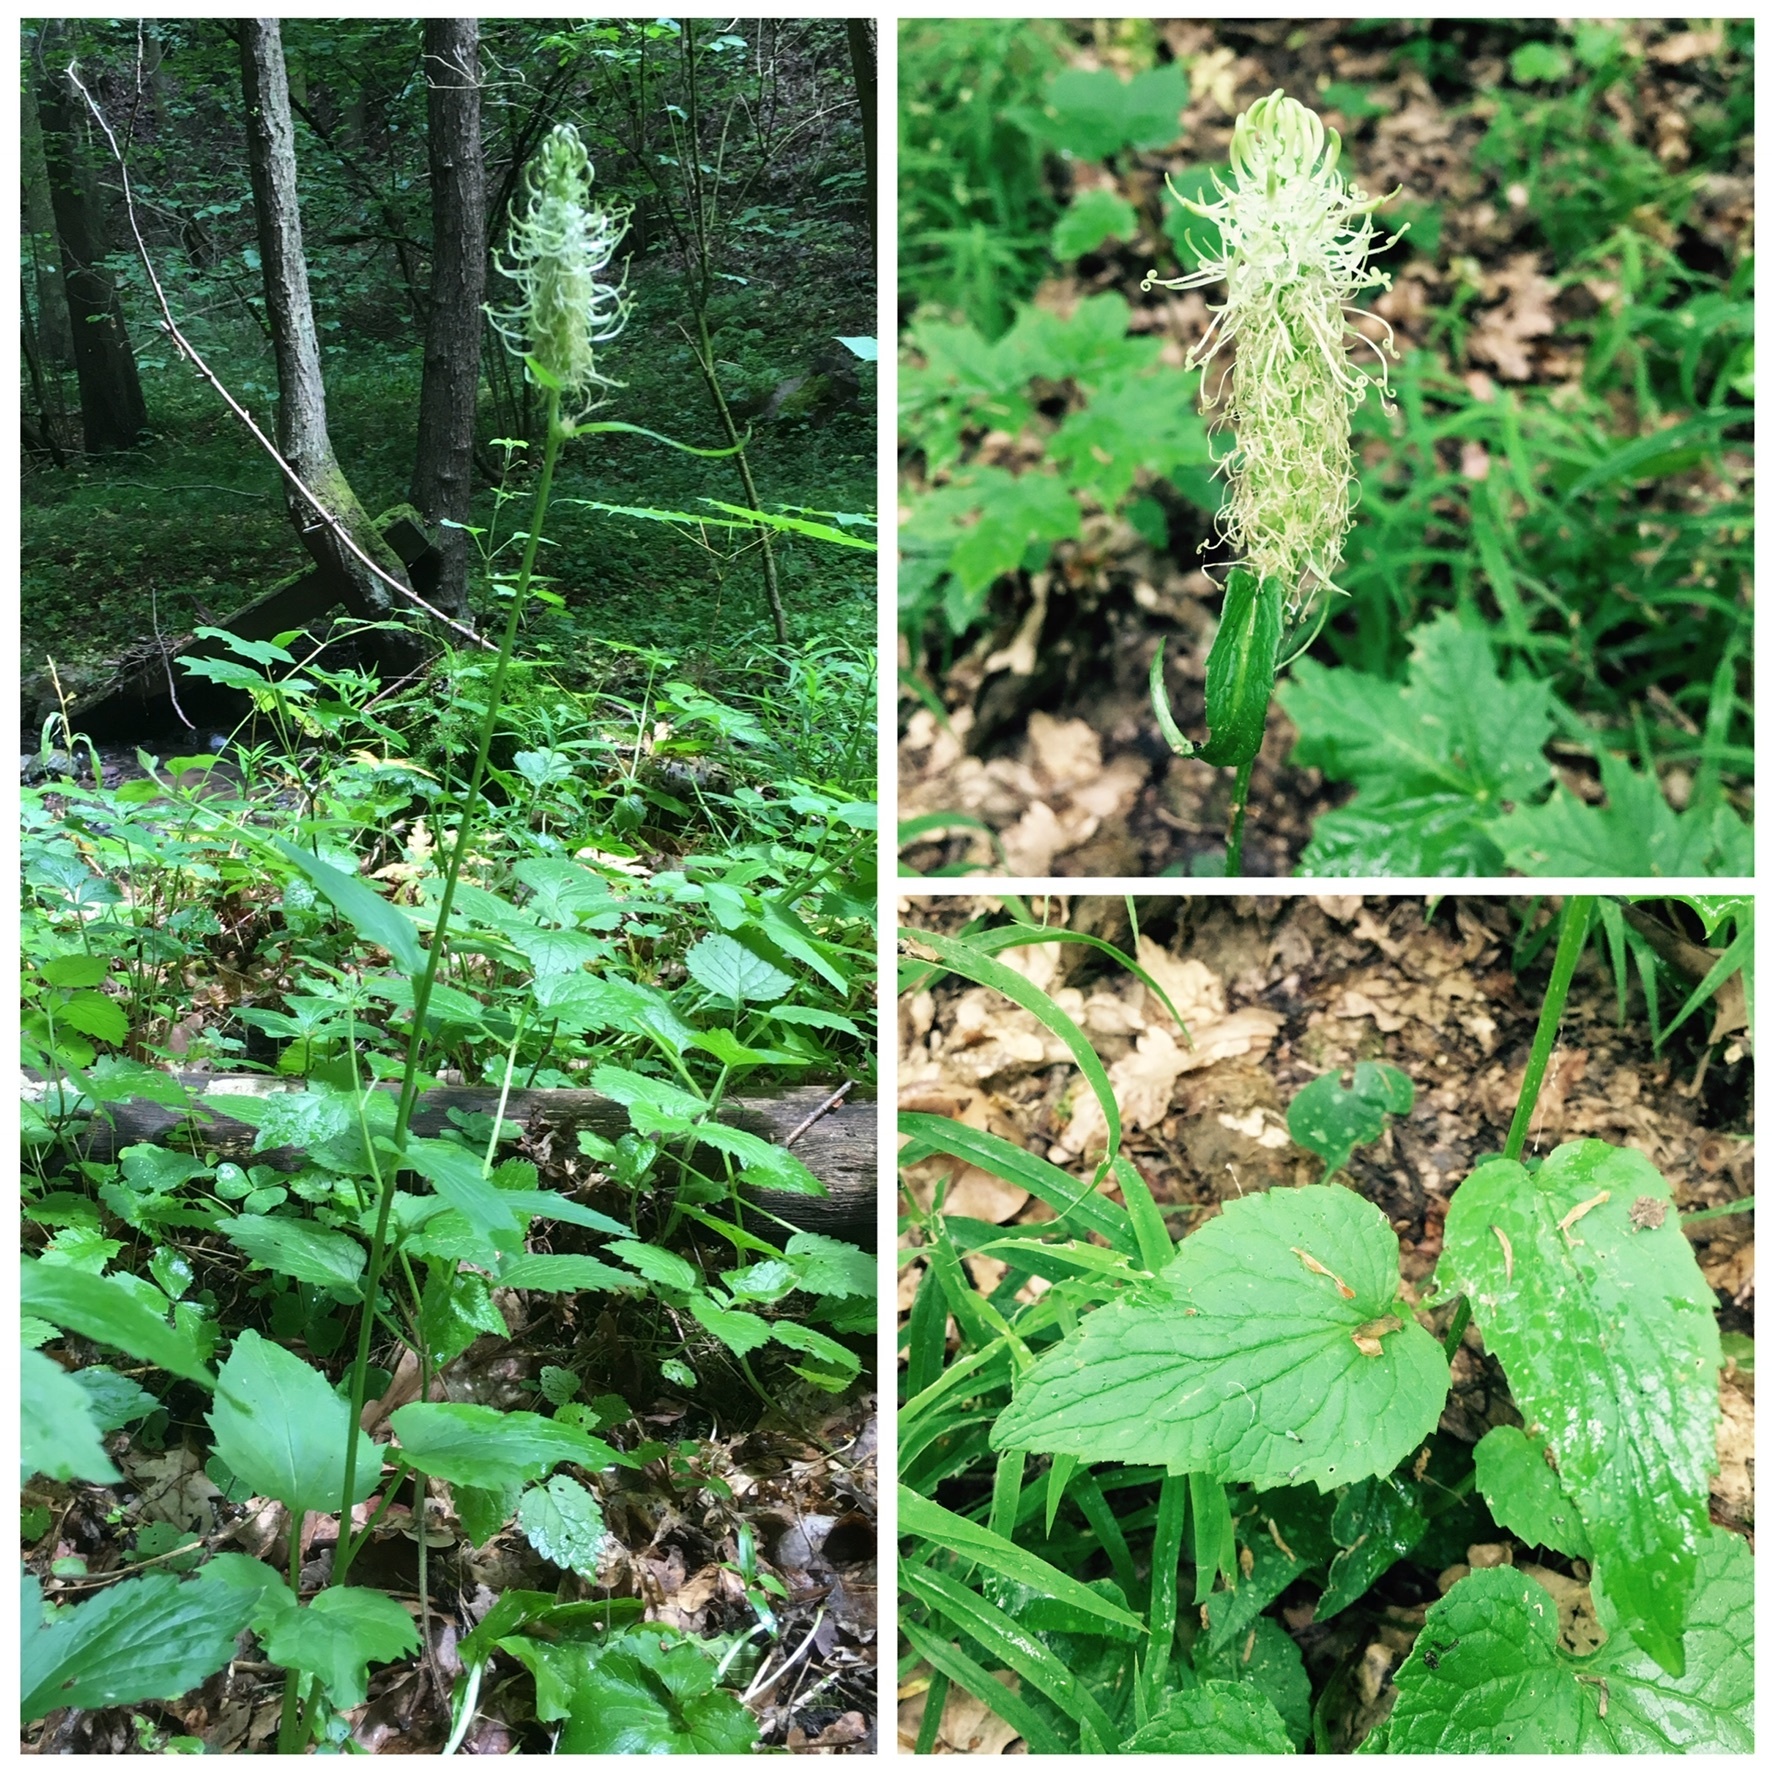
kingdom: Plantae
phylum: Tracheophyta
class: Magnoliopsida
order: Asterales
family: Campanulaceae
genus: Phyteuma
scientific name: Phyteuma spicatum
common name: Spiked rampion
